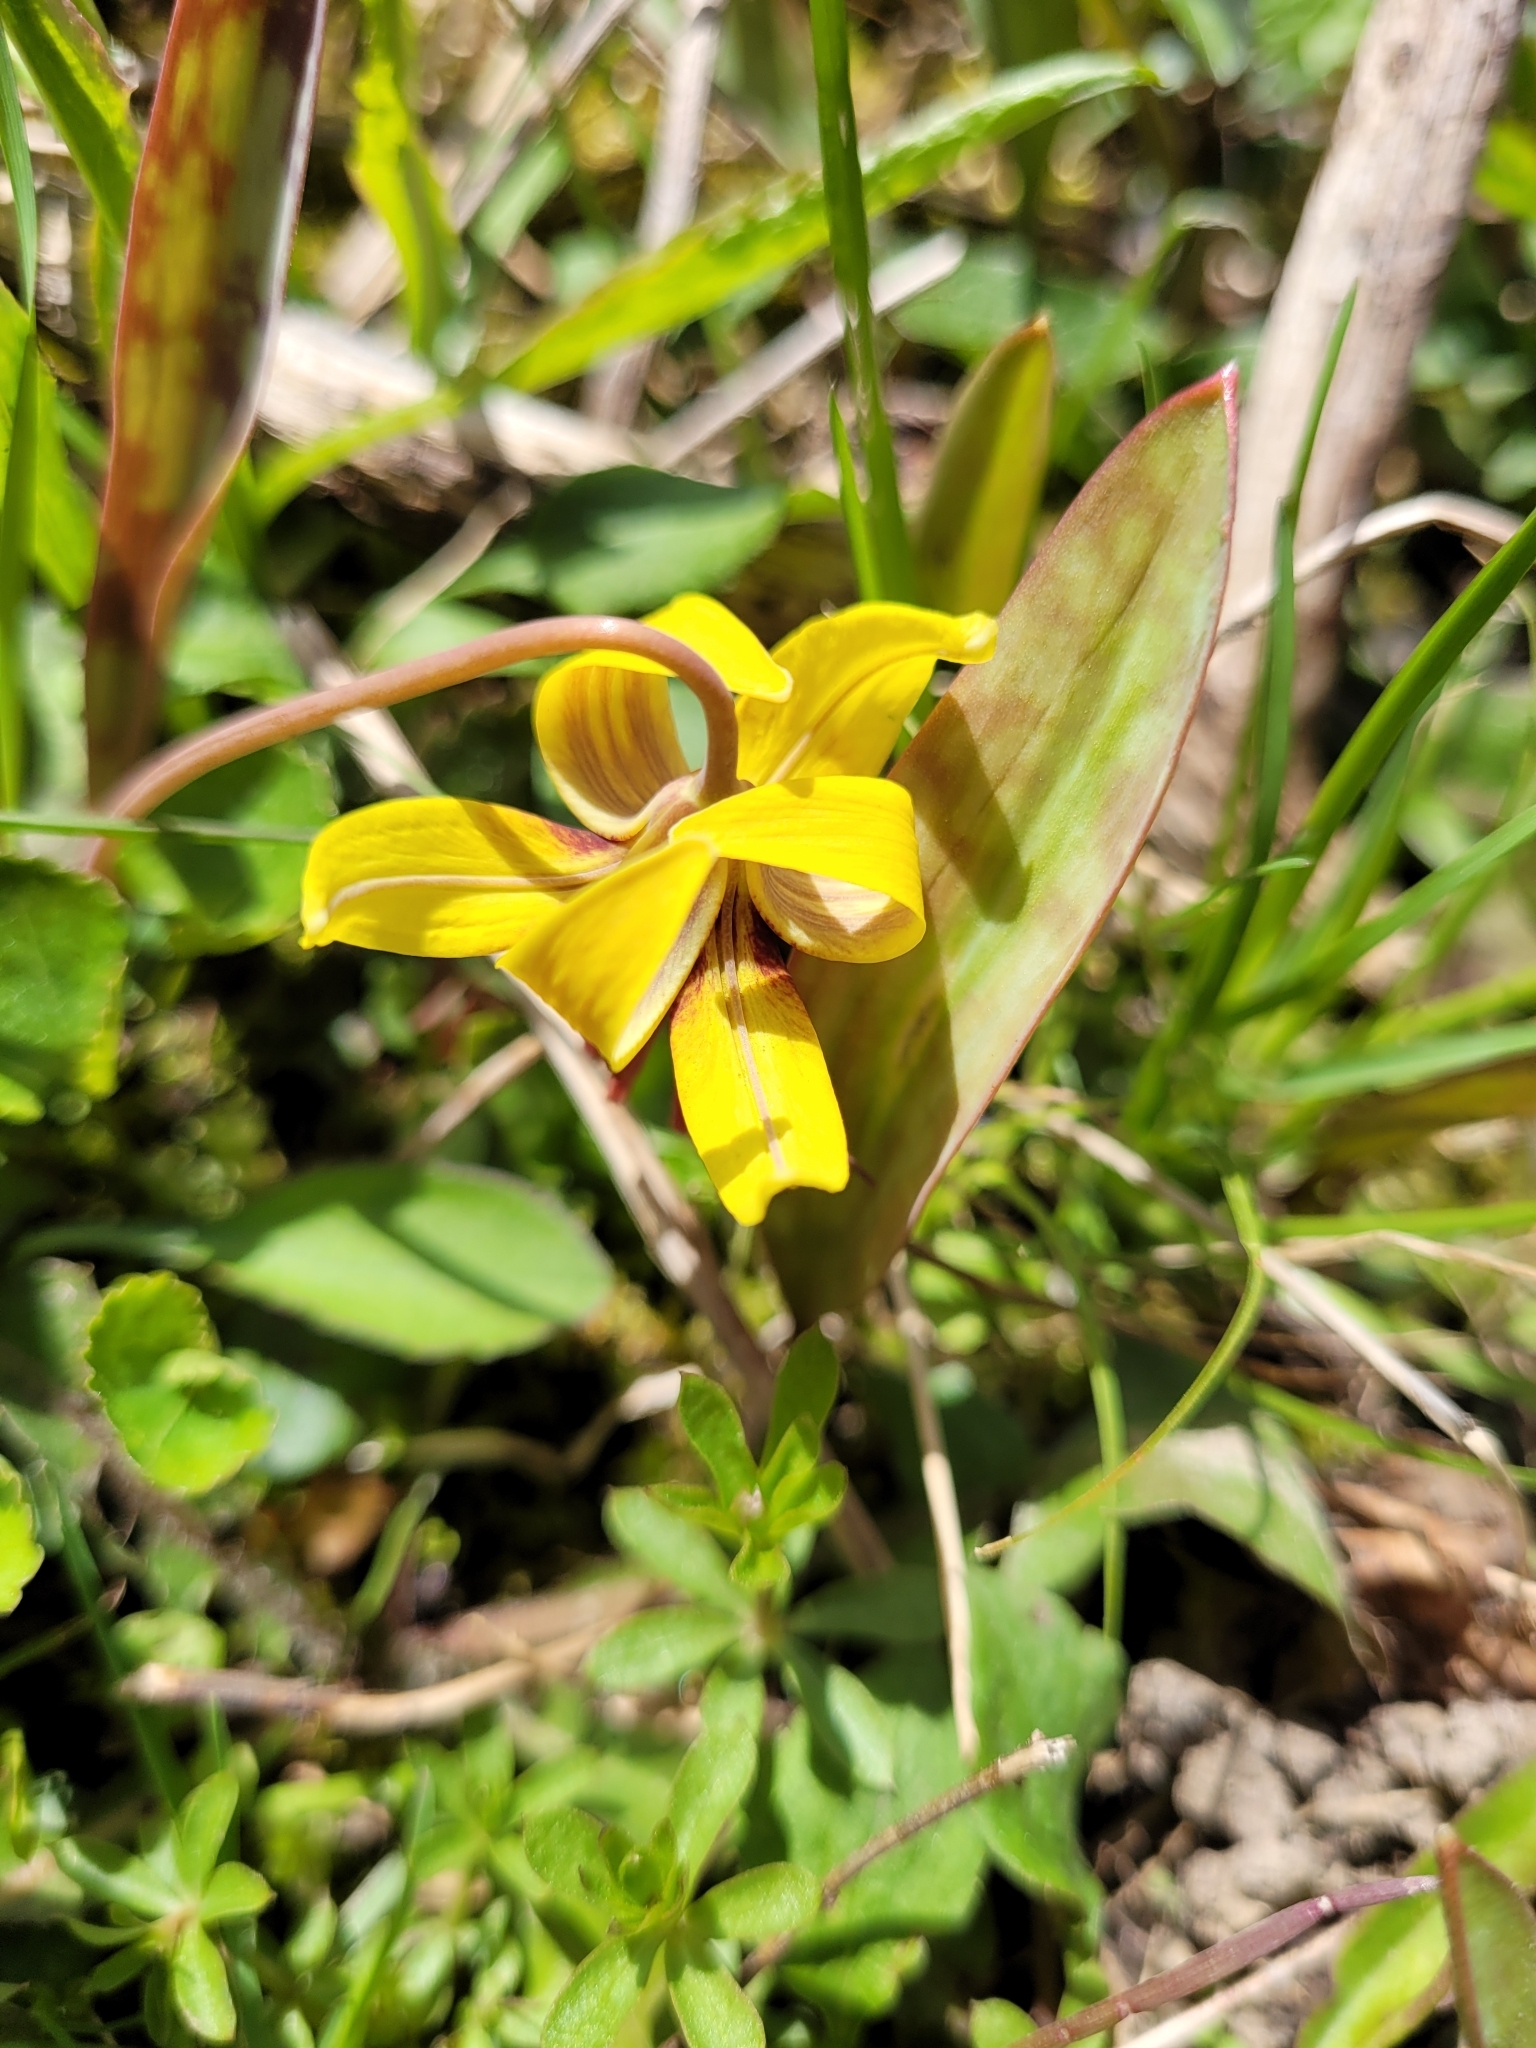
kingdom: Plantae
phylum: Tracheophyta
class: Liliopsida
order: Liliales
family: Liliaceae
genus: Erythronium
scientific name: Erythronium americanum
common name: Yellow adder's-tongue
